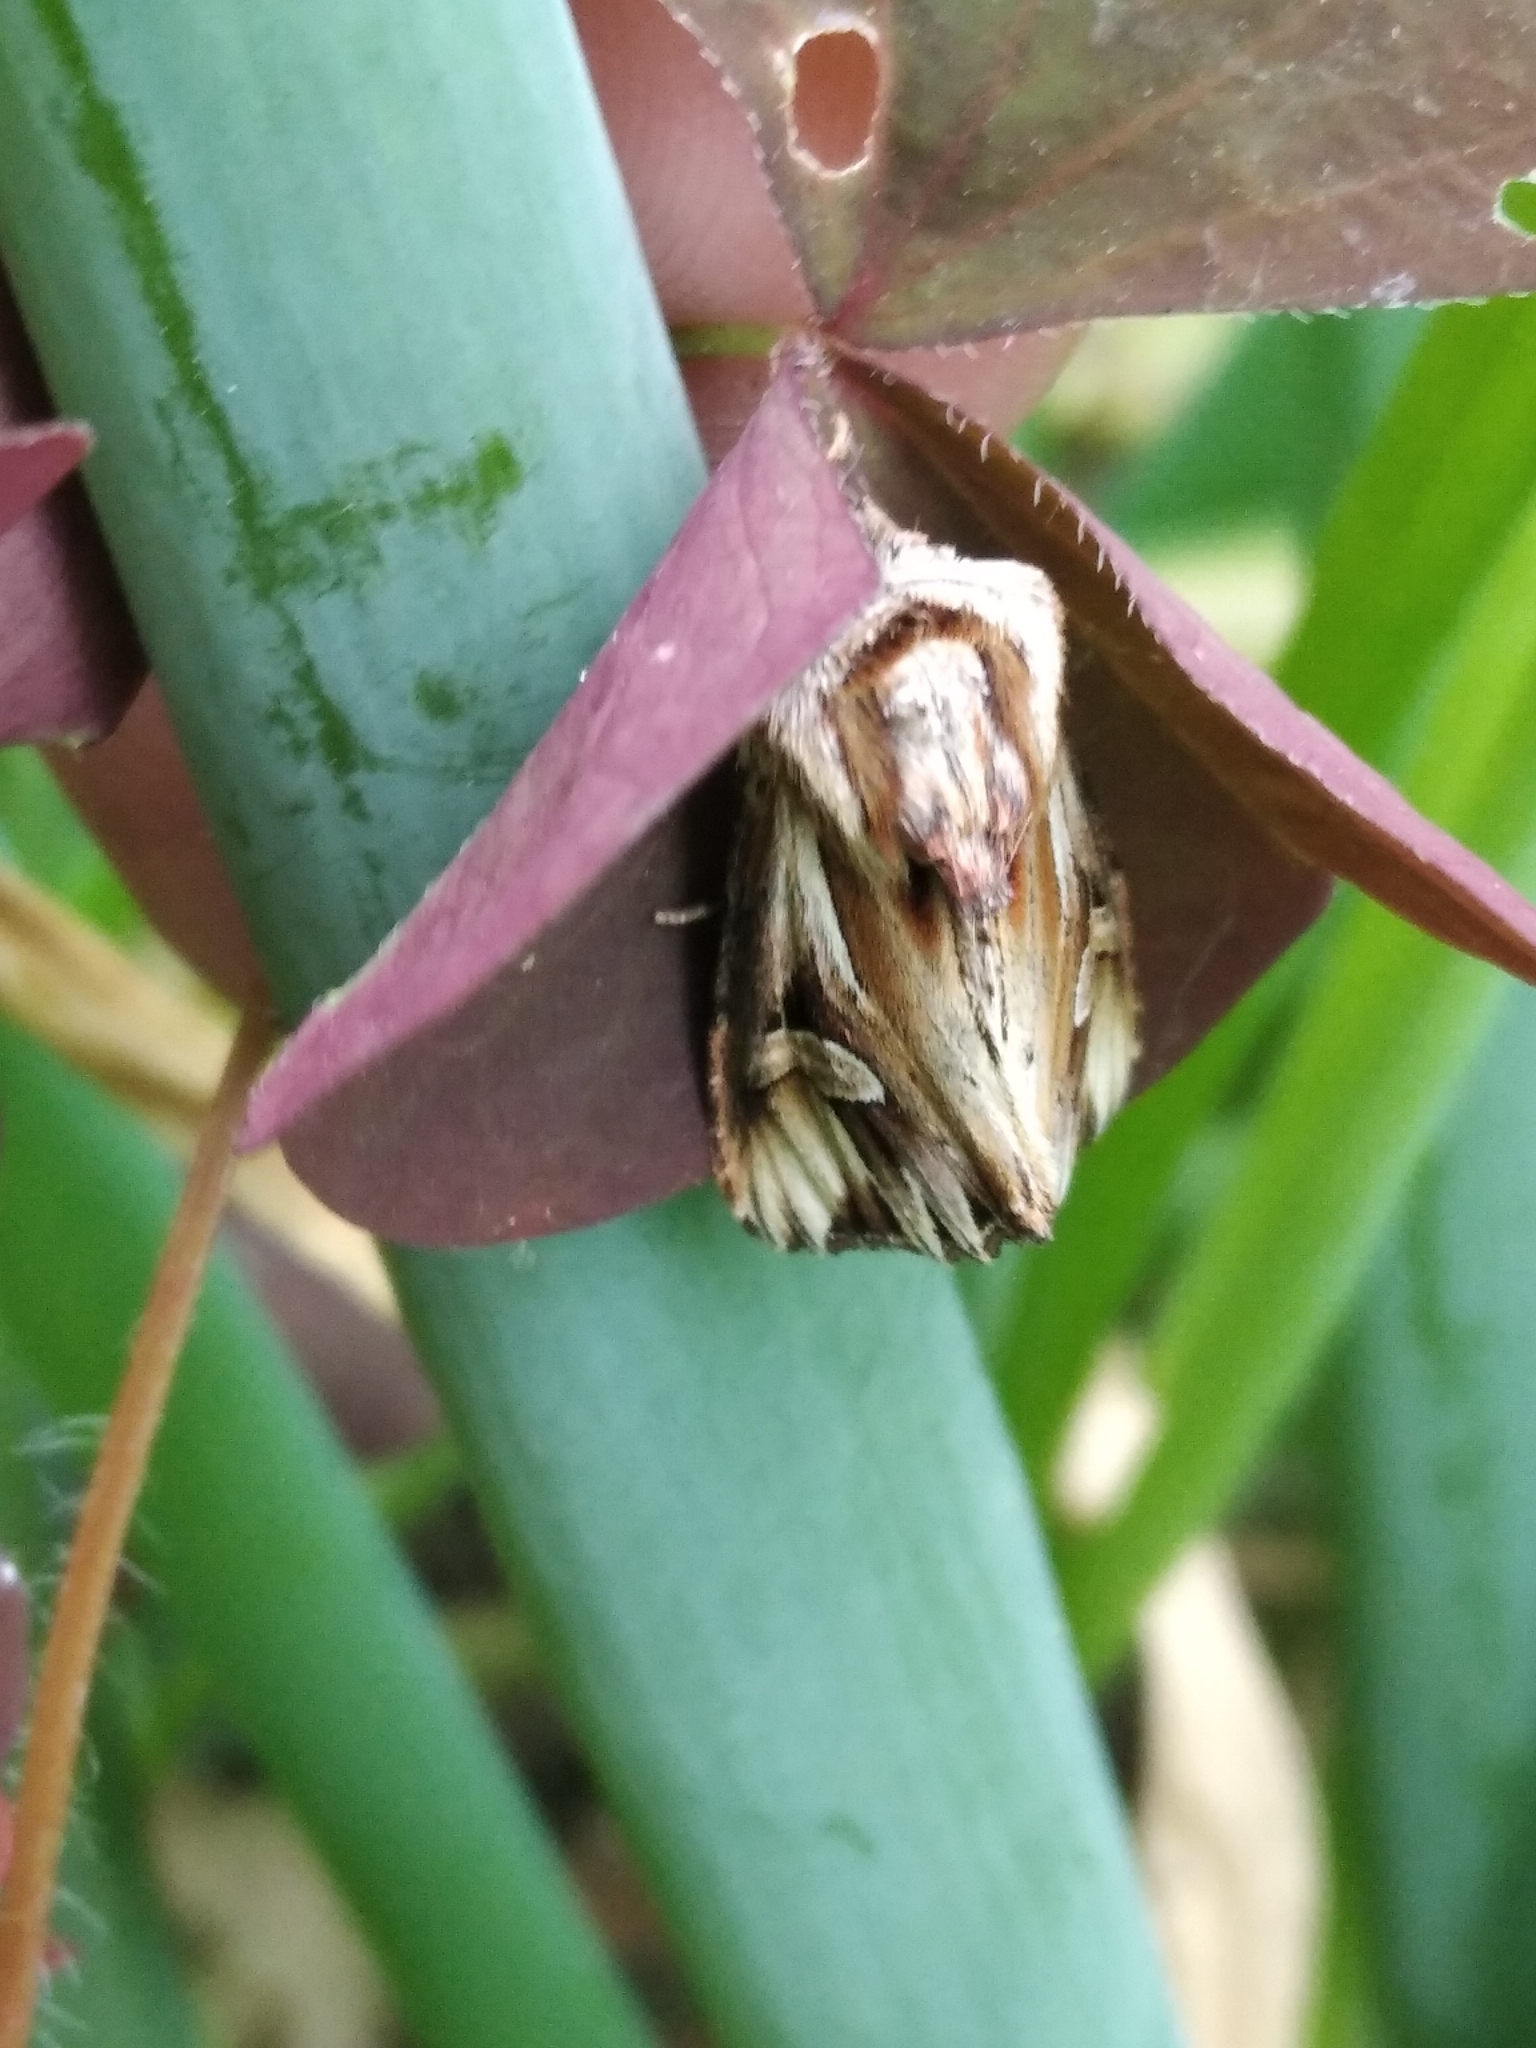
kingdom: Animalia
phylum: Arthropoda
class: Insecta
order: Lepidoptera
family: Noctuidae
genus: Actinotia
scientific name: Actinotia polyodon
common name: Purple cloud
